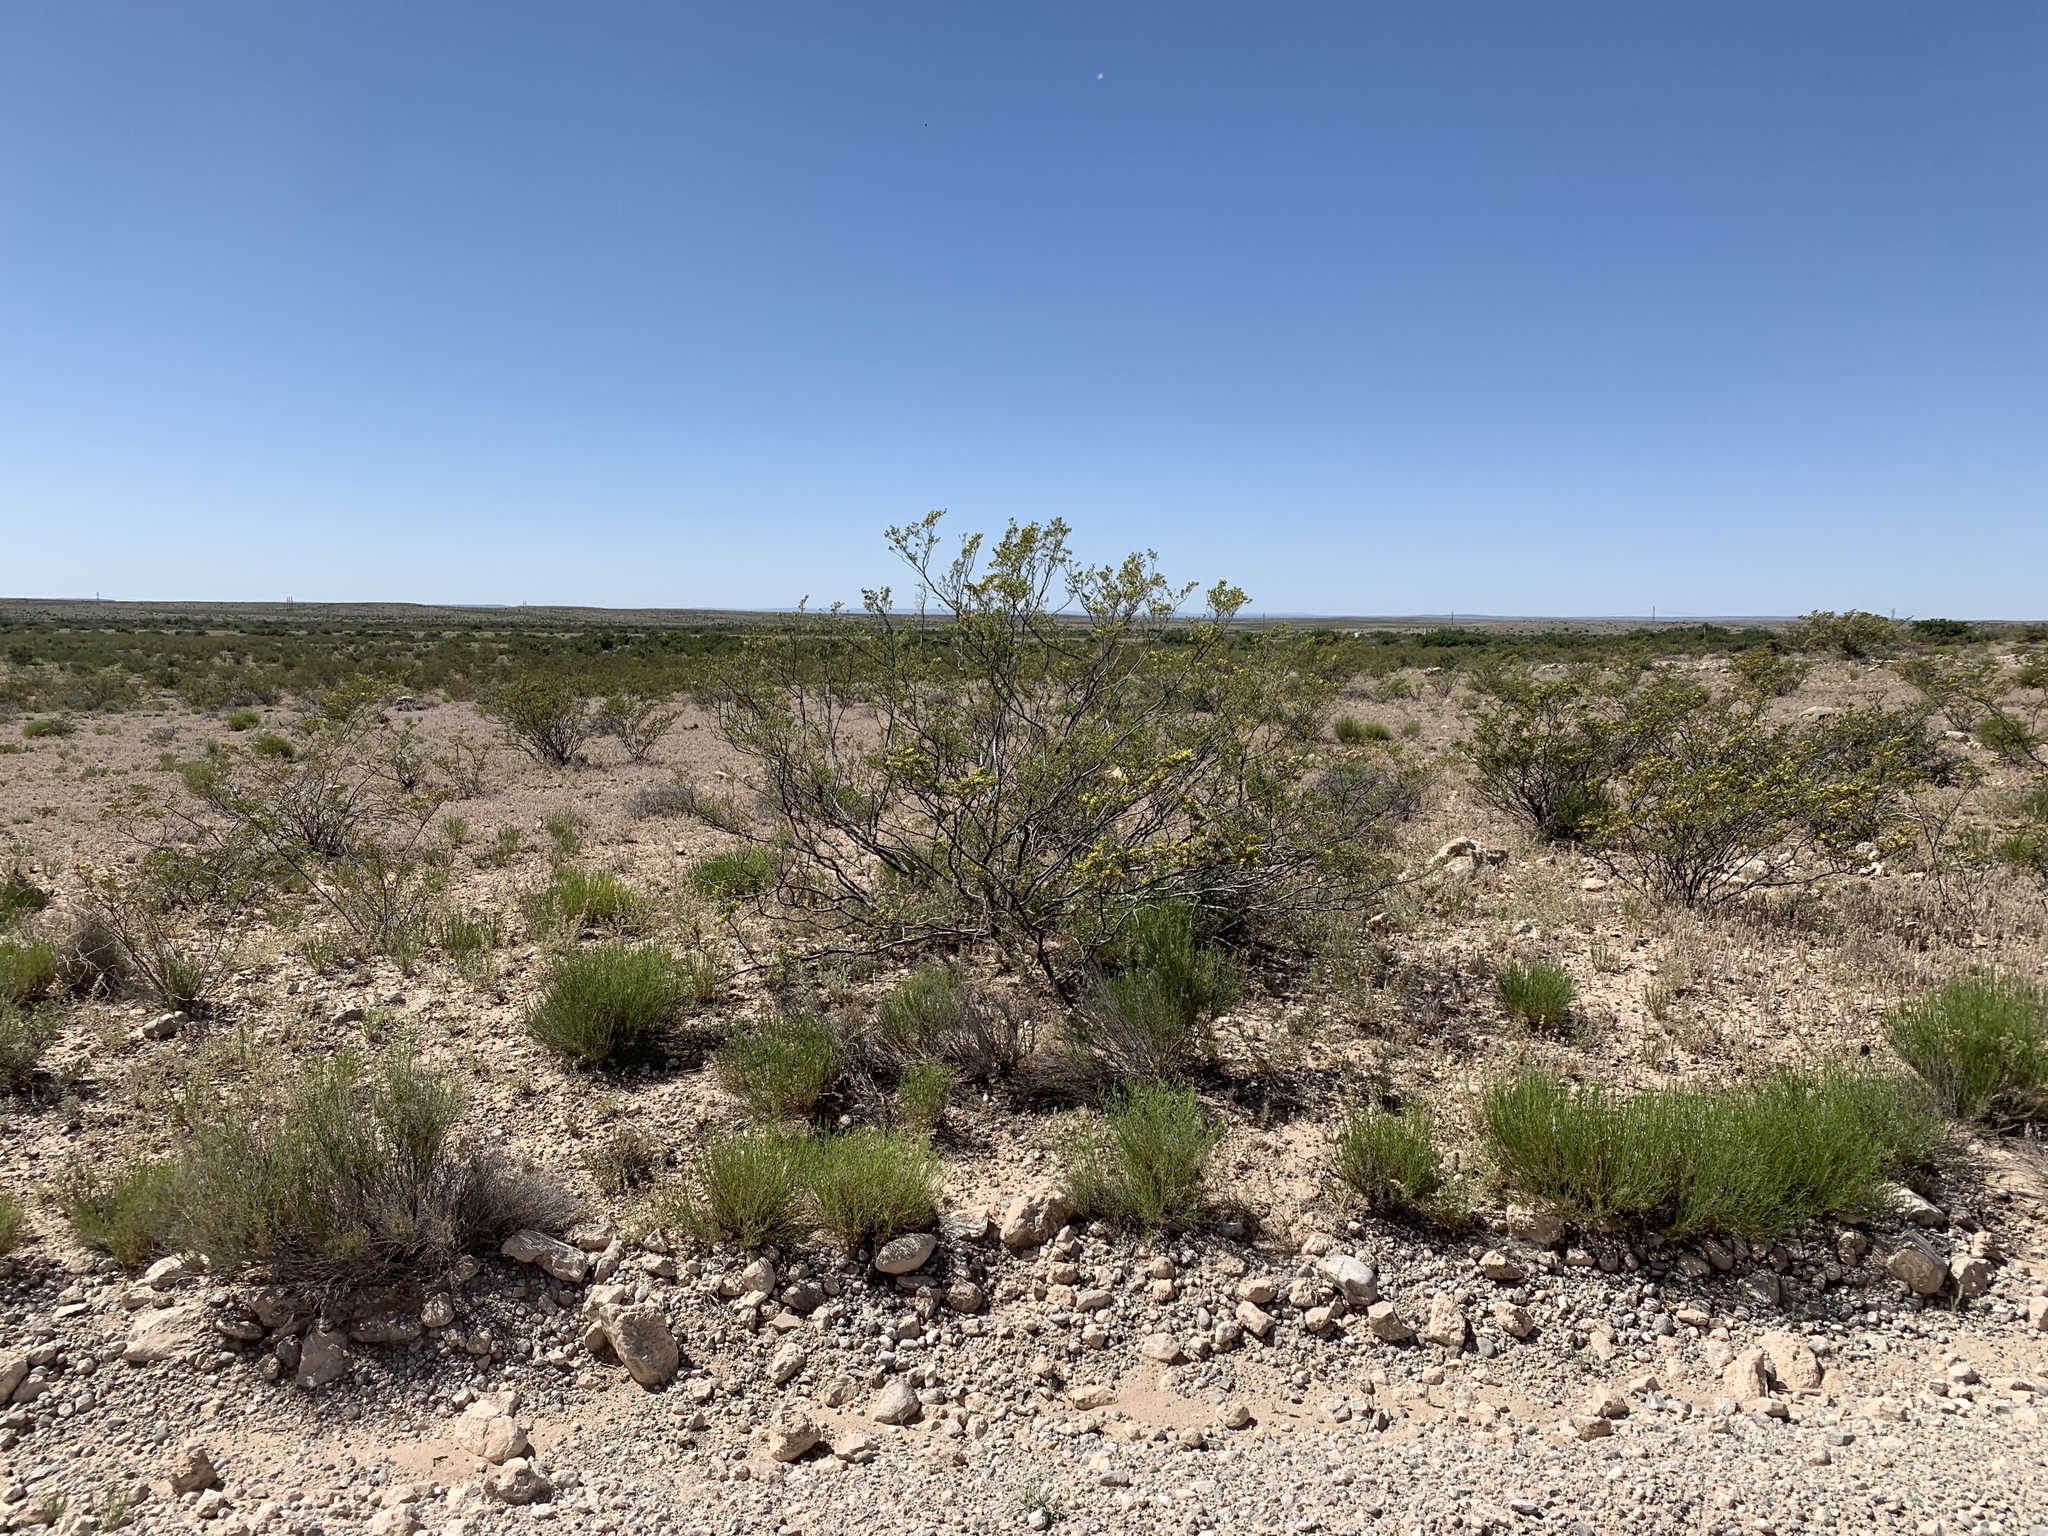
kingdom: Plantae
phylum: Tracheophyta
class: Magnoliopsida
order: Zygophyllales
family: Zygophyllaceae
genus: Larrea
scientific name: Larrea tridentata
